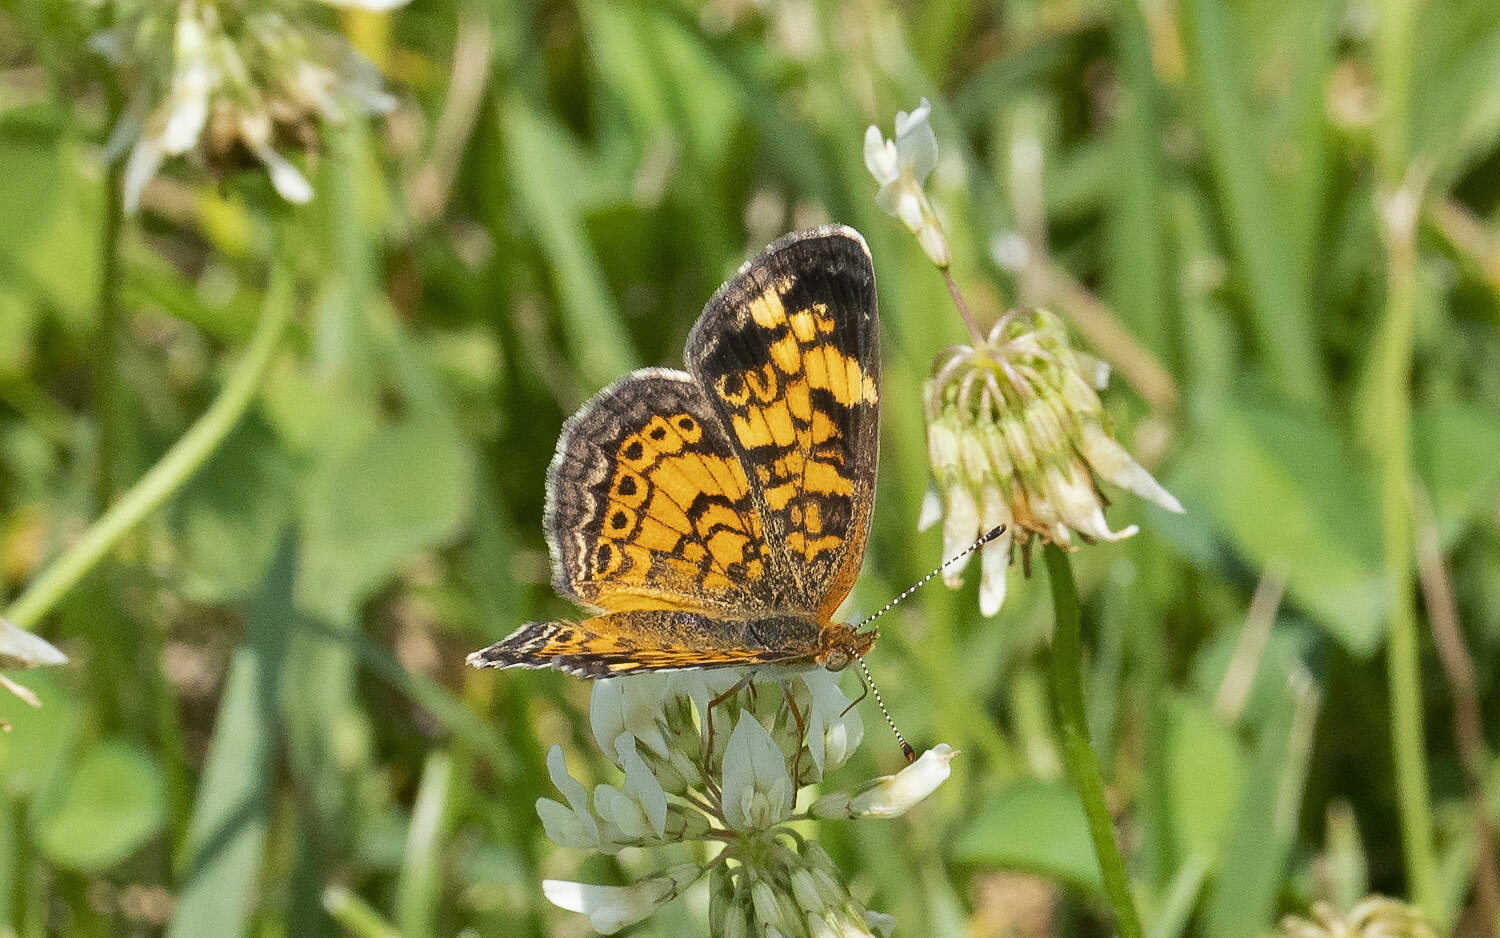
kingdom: Animalia
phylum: Arthropoda
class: Insecta
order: Lepidoptera
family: Nymphalidae
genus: Phyciodes
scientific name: Phyciodes tharos
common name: Pearl crescent
